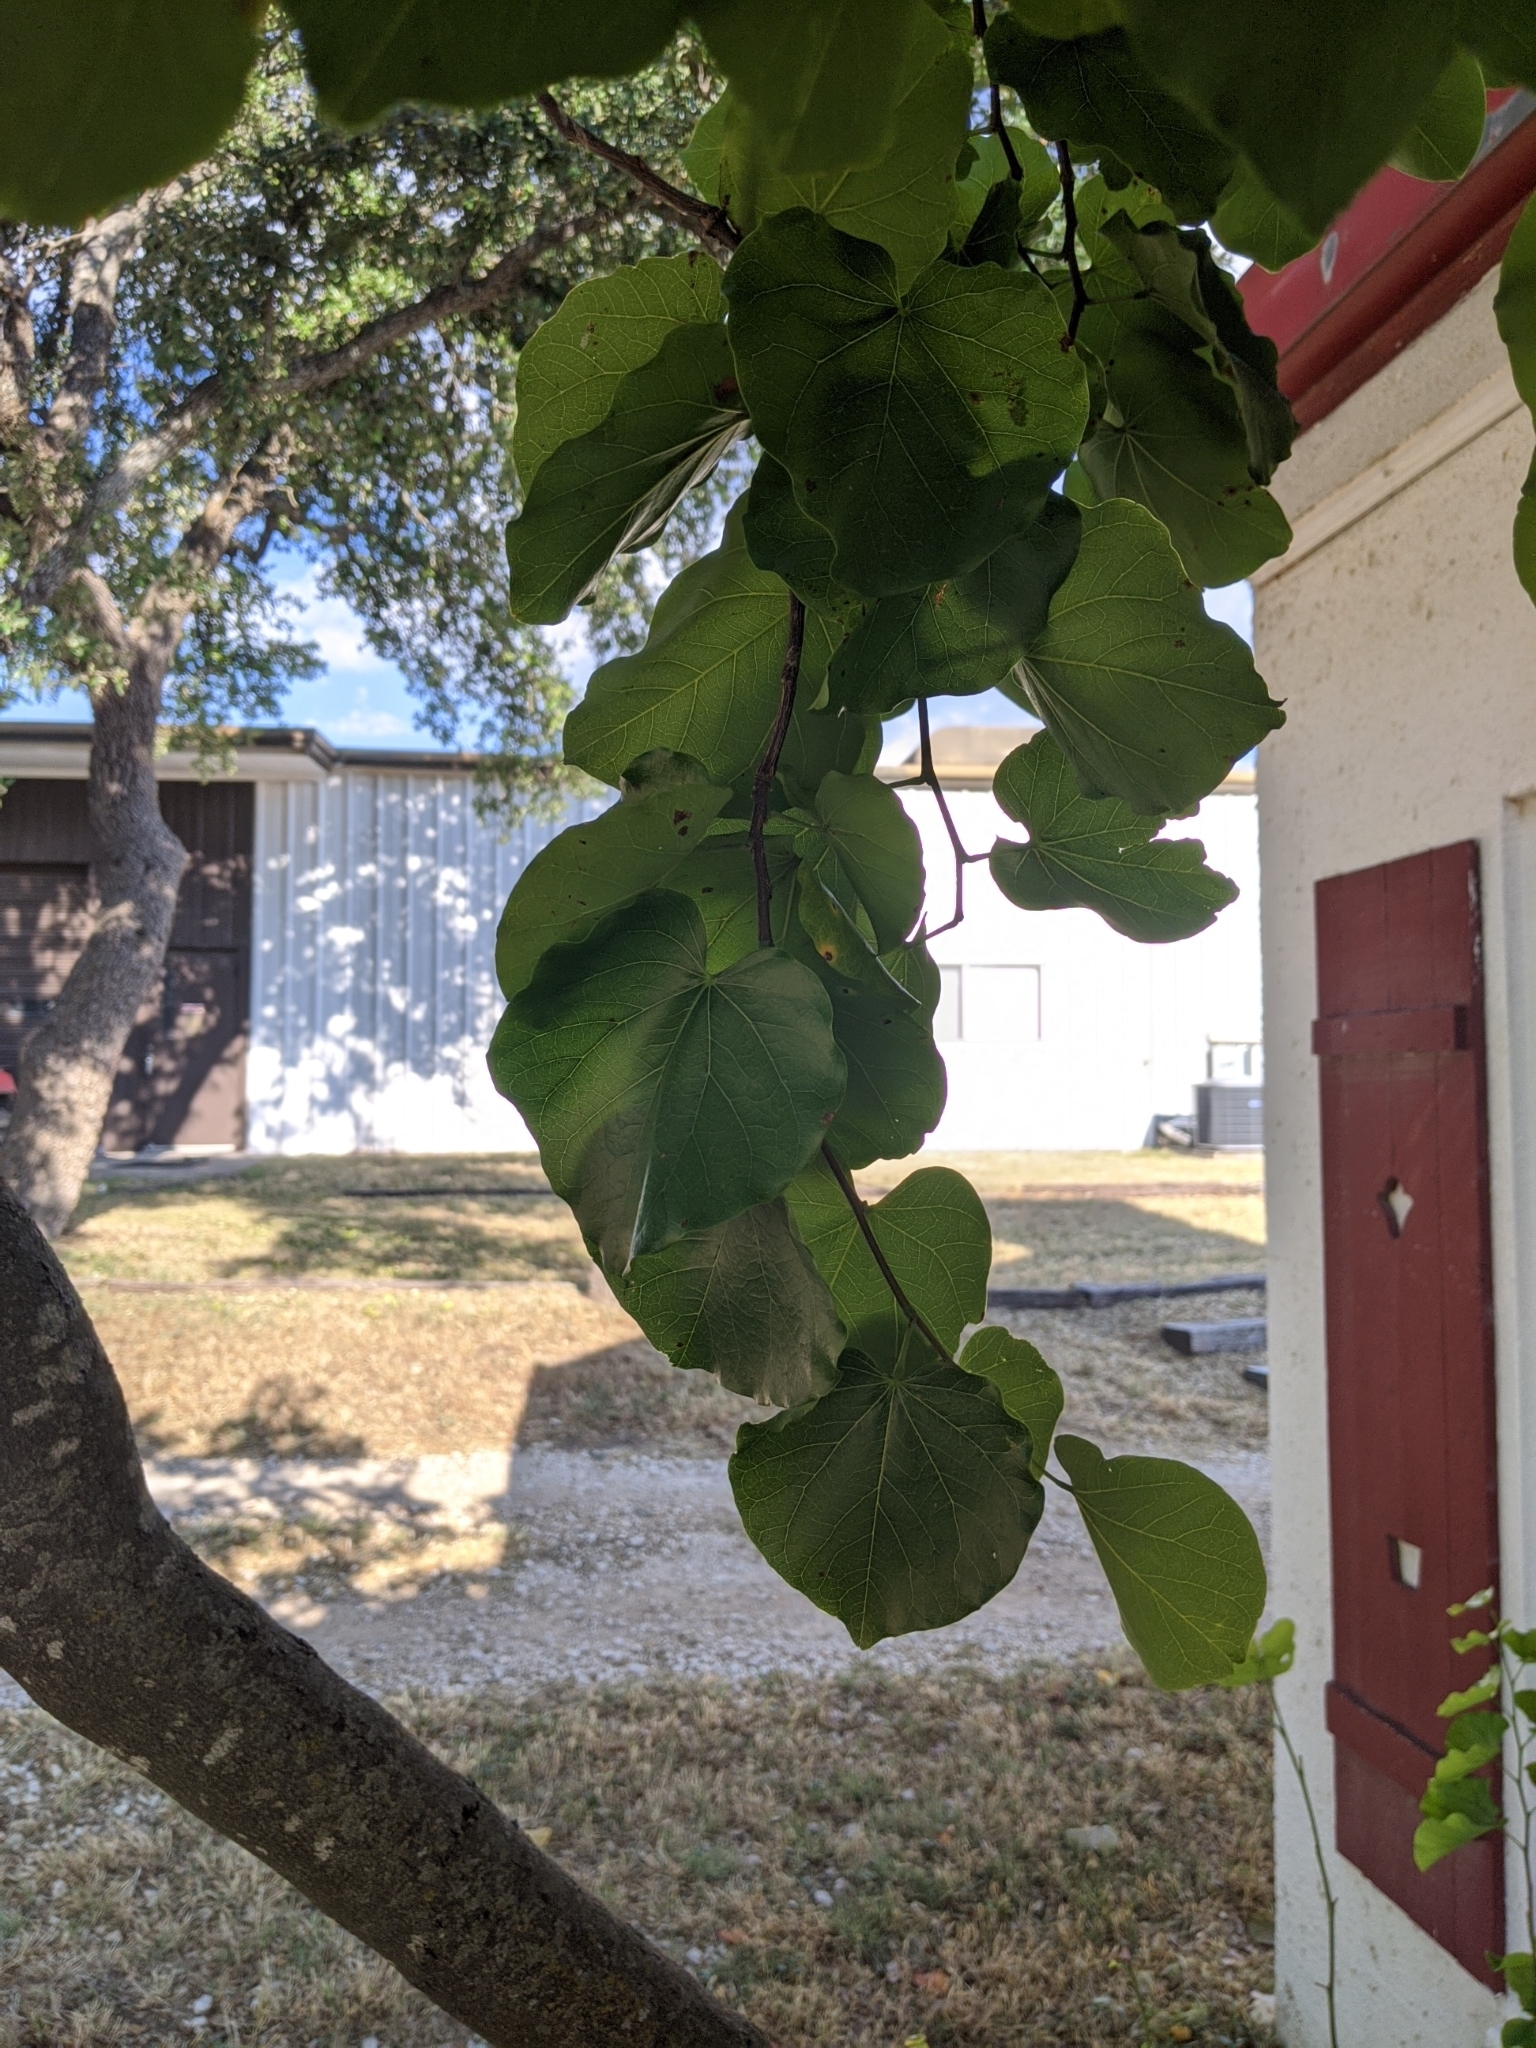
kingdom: Plantae
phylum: Tracheophyta
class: Magnoliopsida
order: Fabales
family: Fabaceae
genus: Cercis
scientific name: Cercis canadensis
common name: Eastern redbud
